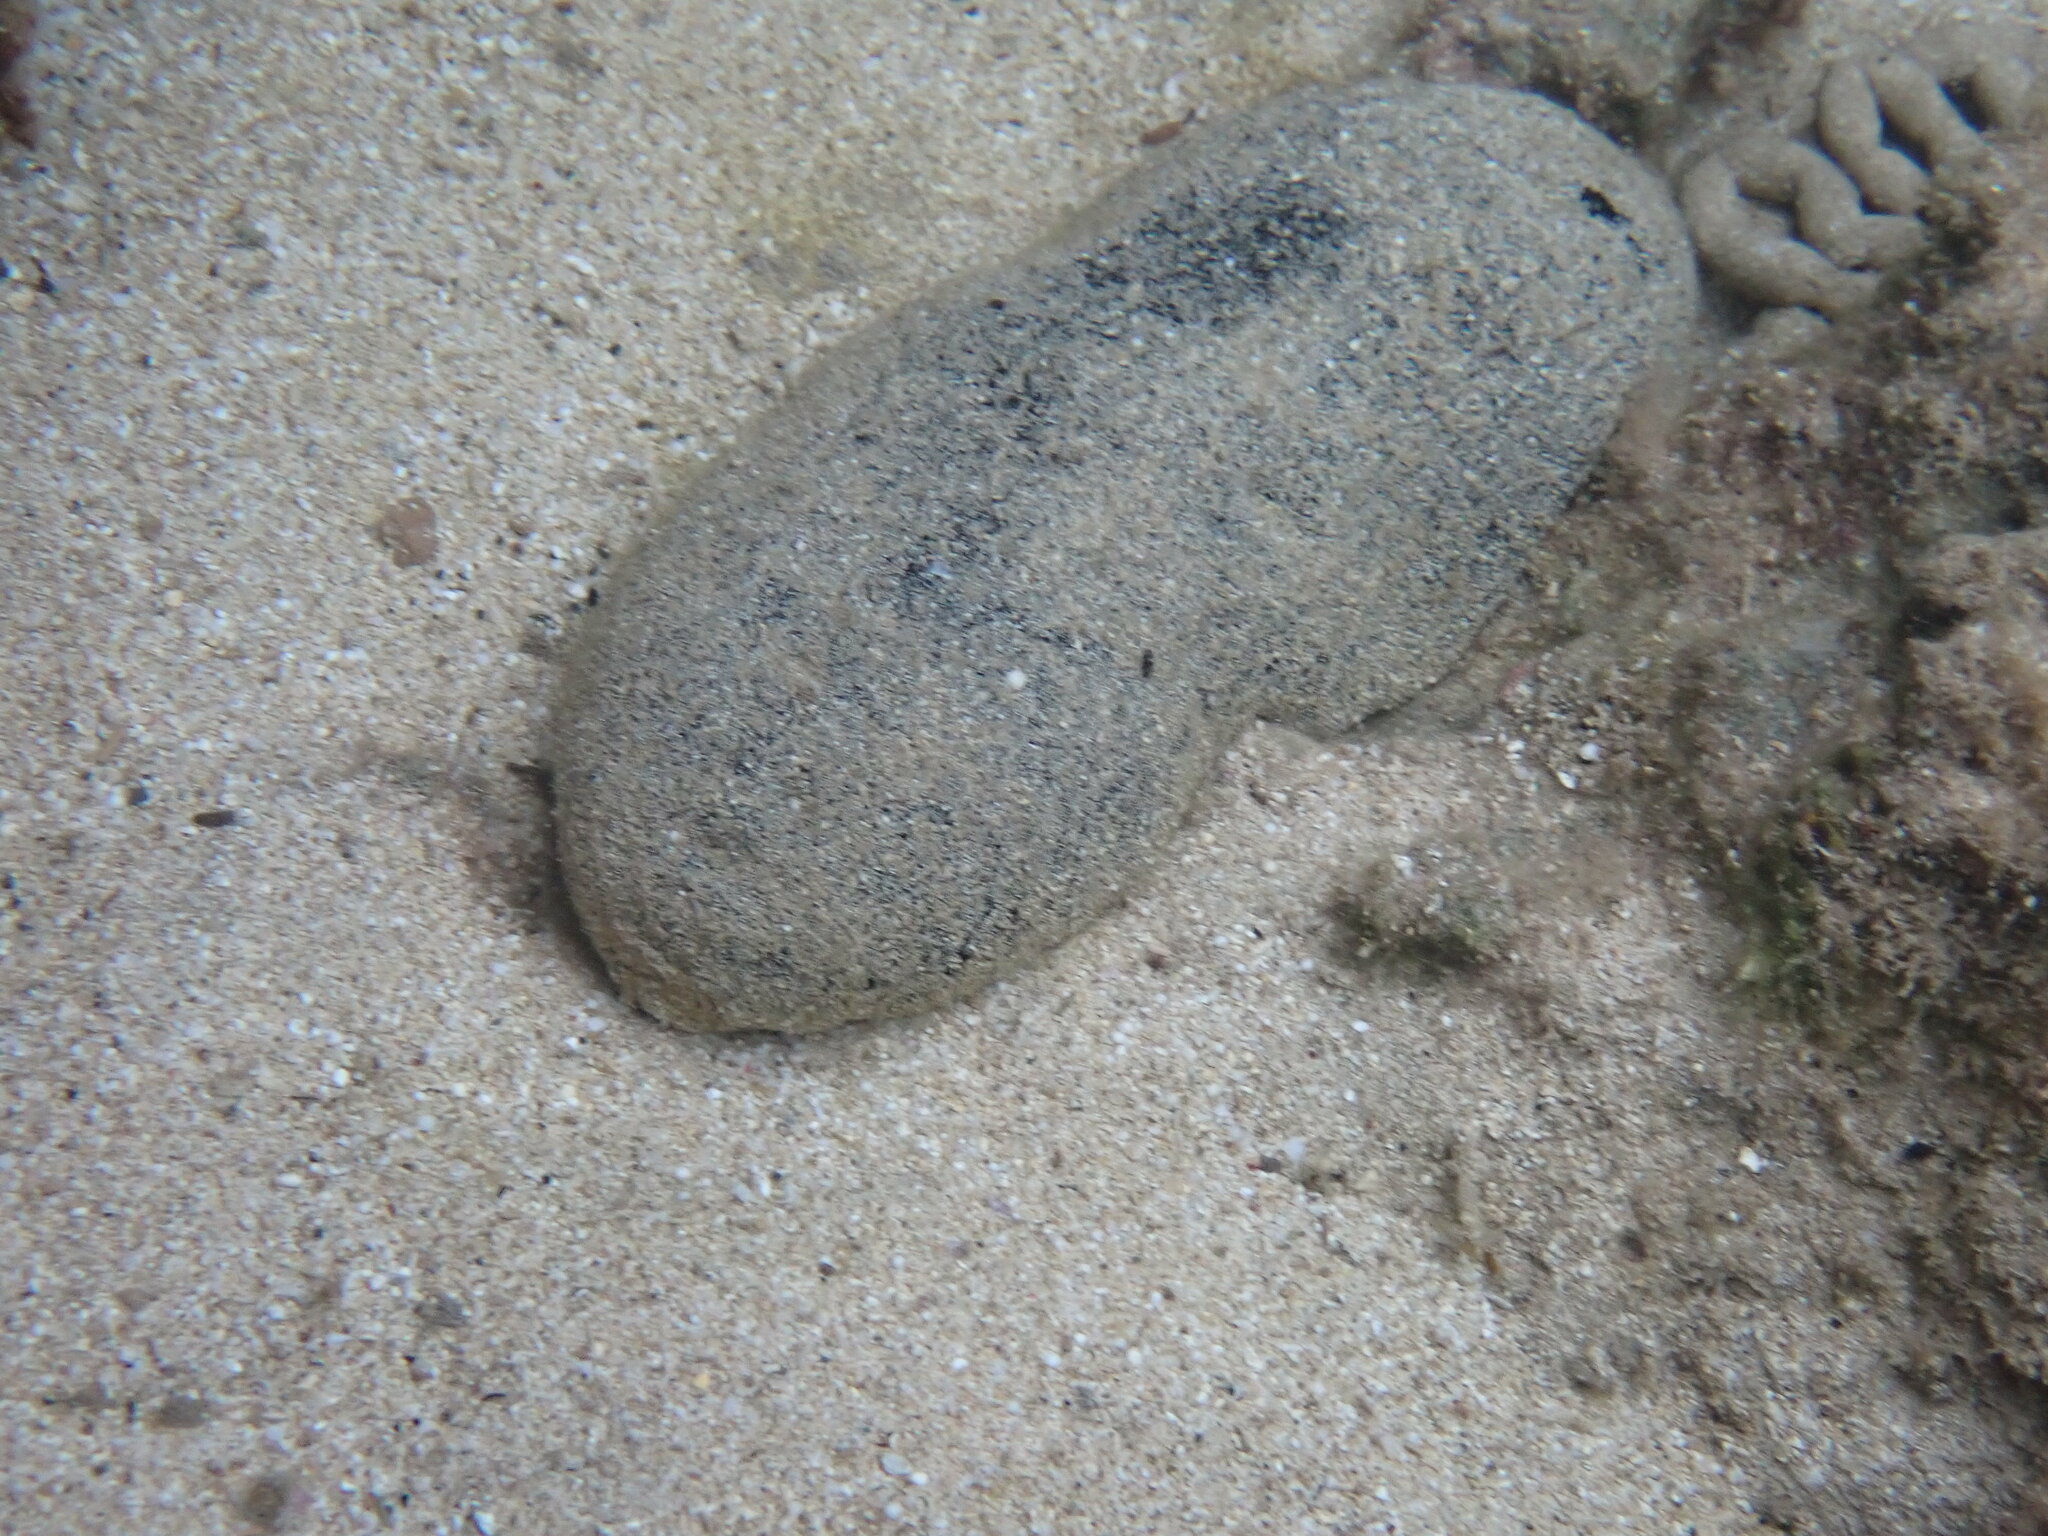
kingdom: Animalia
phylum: Echinodermata
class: Holothuroidea
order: Holothuriida
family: Holothuriidae
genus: Holothuria
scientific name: Holothuria whitmaei
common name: Black teatfish
